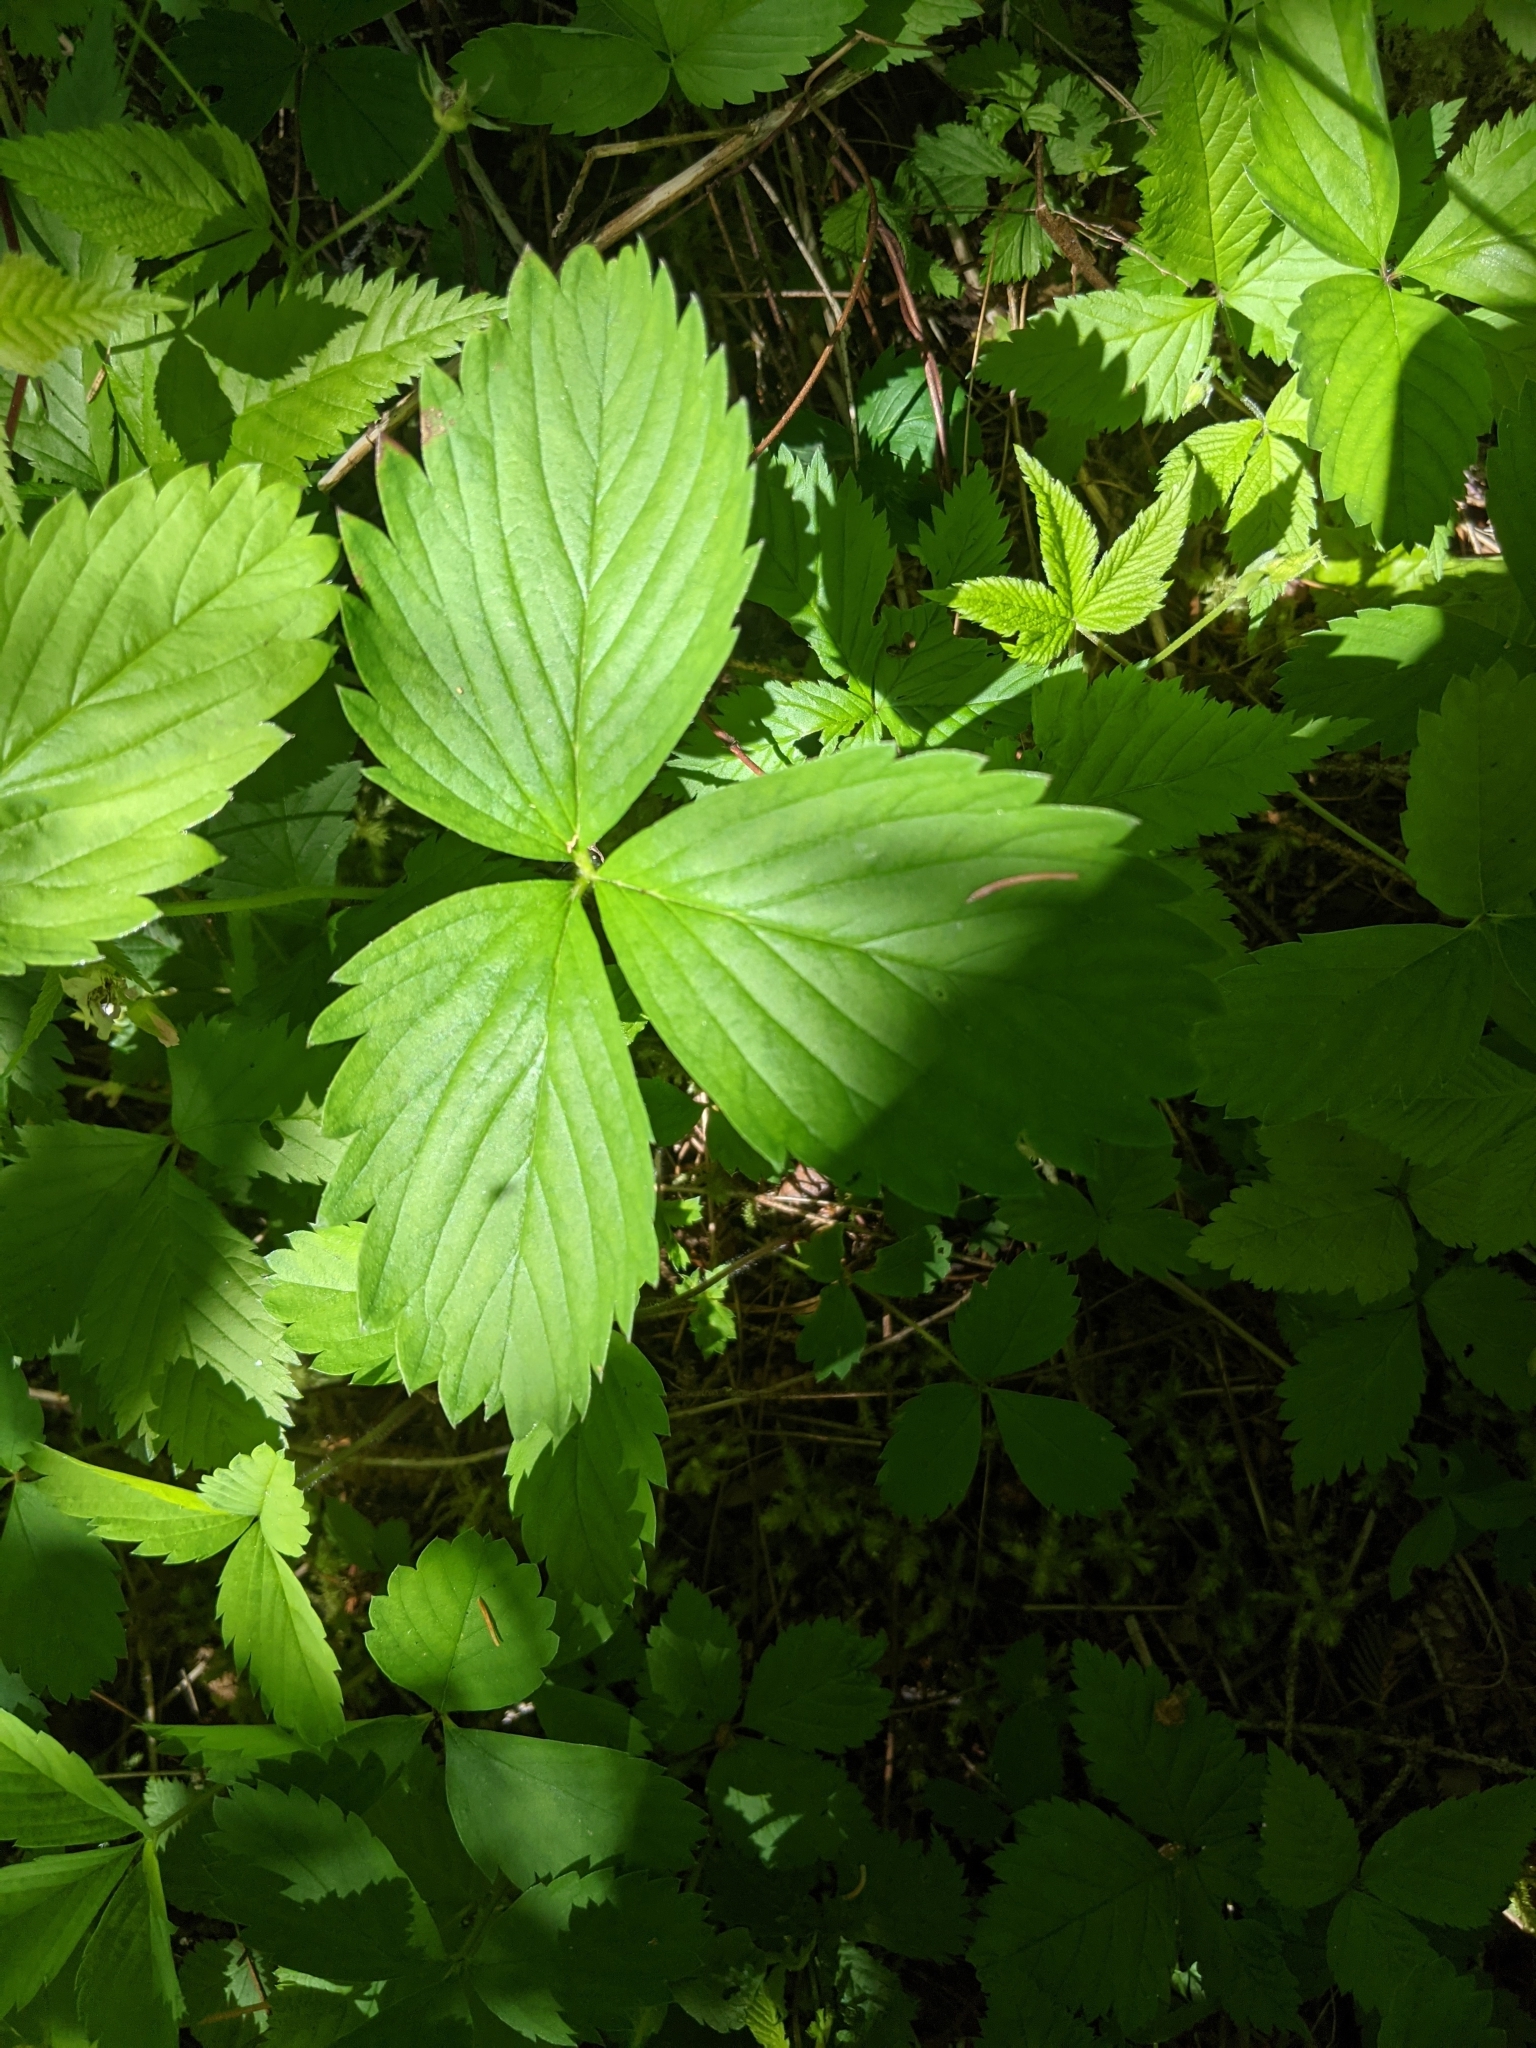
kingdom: Plantae
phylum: Tracheophyta
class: Magnoliopsida
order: Rosales
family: Rosaceae
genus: Fragaria
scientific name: Fragaria virginiana
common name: Thickleaved wild strawberry
